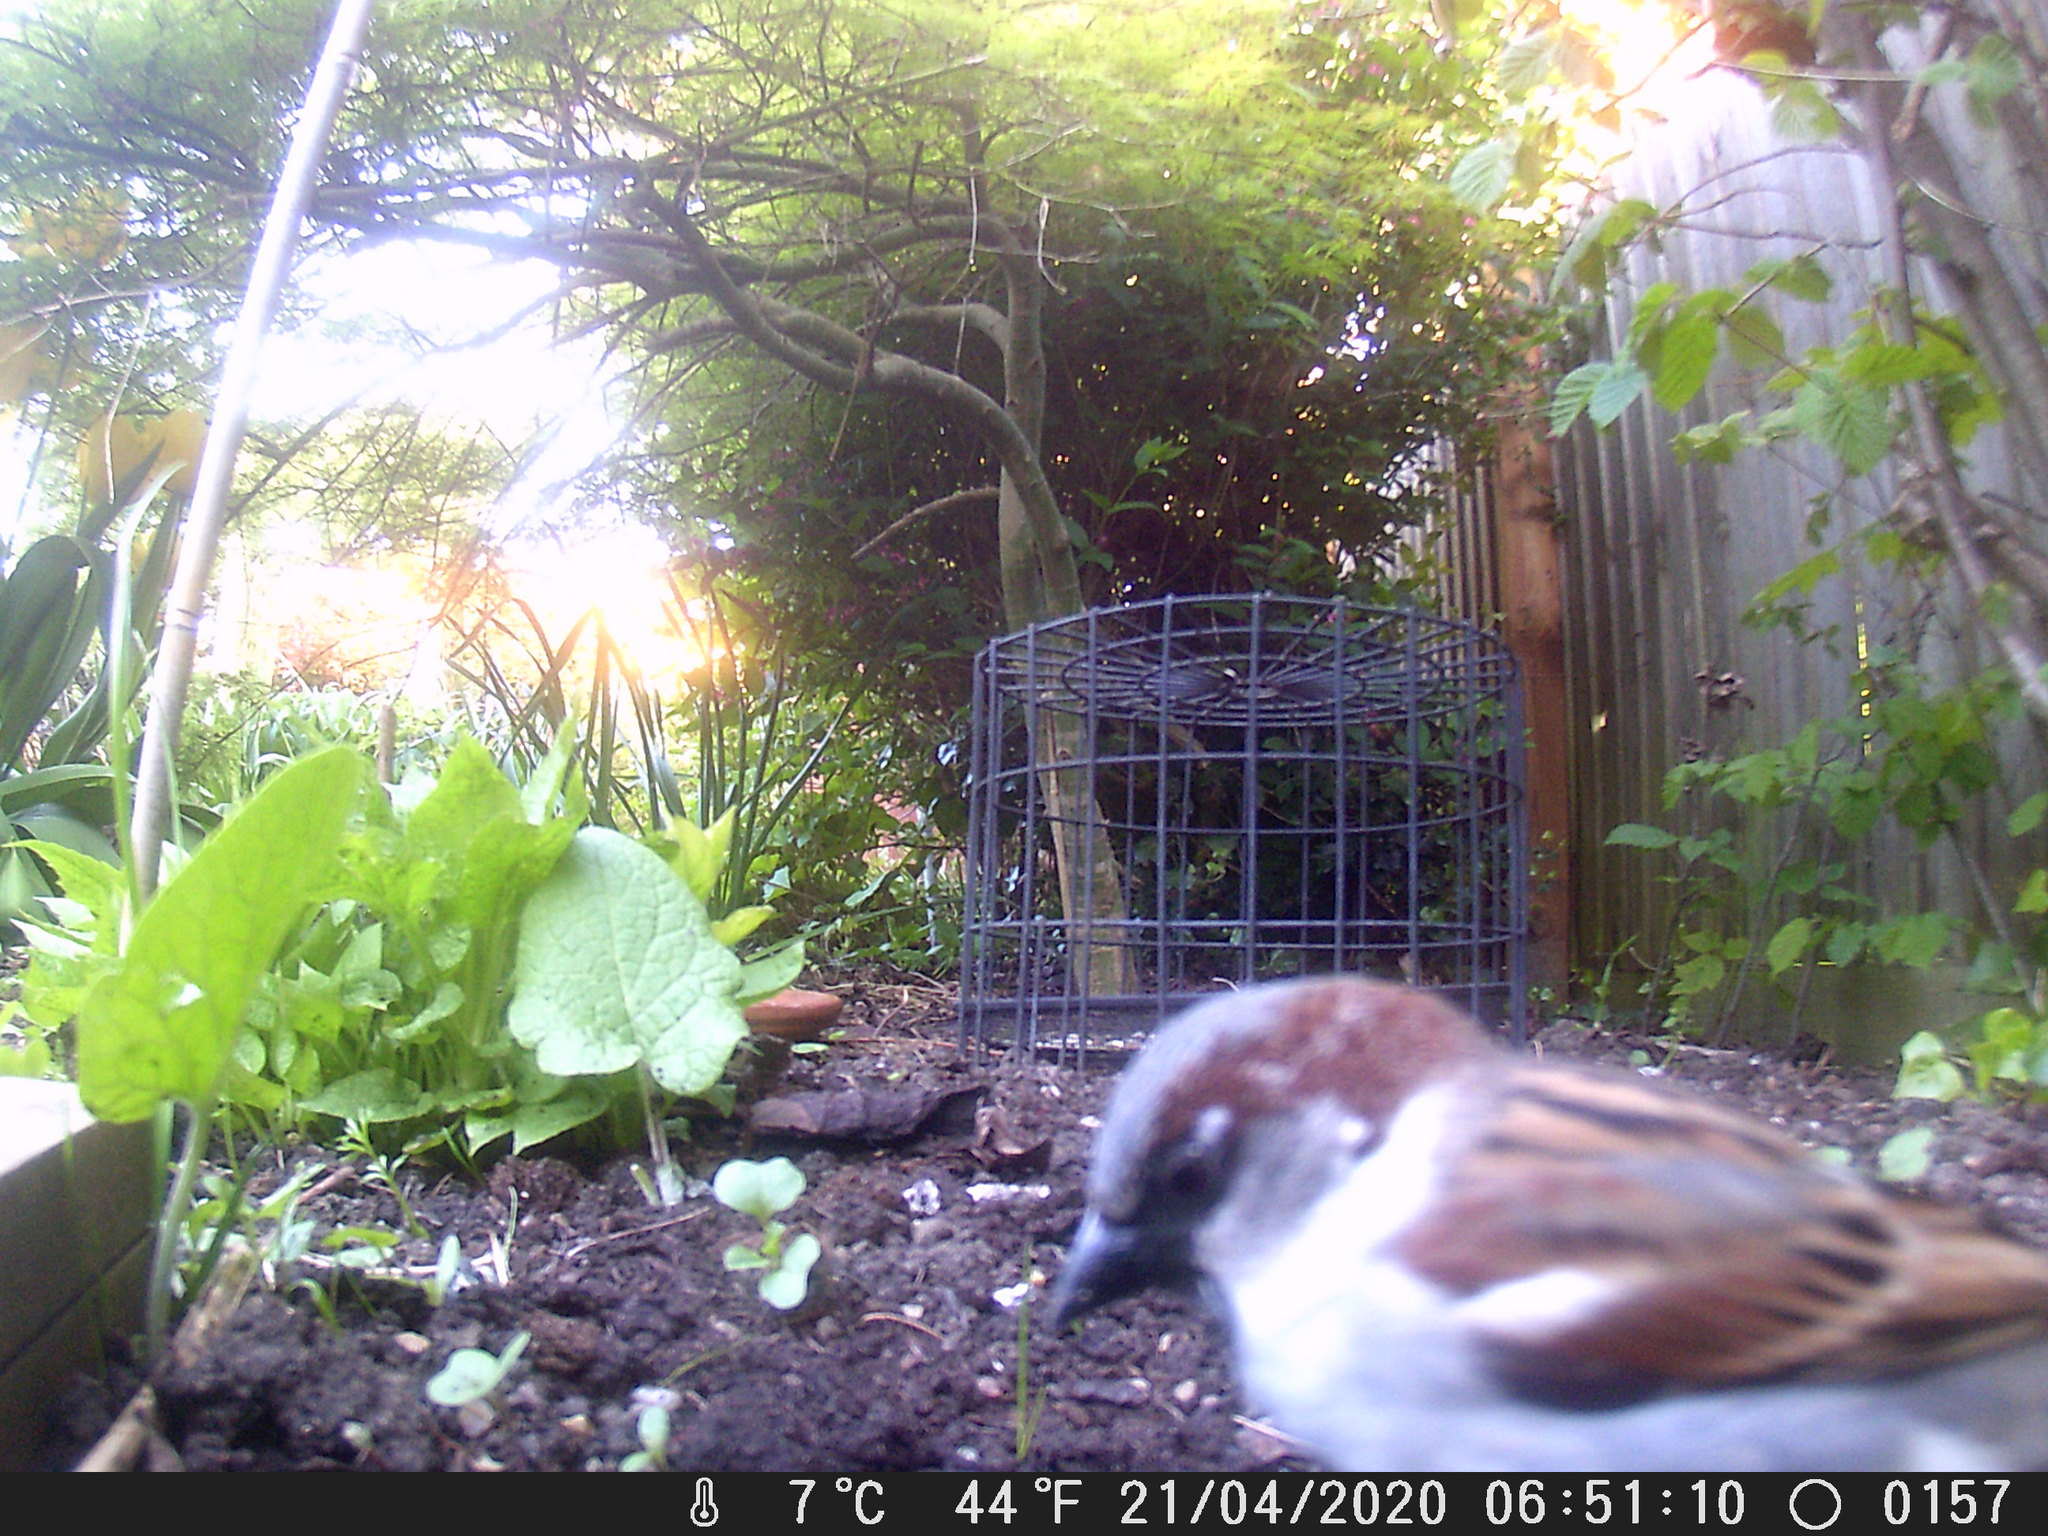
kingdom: Animalia
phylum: Chordata
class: Aves
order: Passeriformes
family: Passeridae
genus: Passer
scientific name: Passer domesticus
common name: House sparrow
